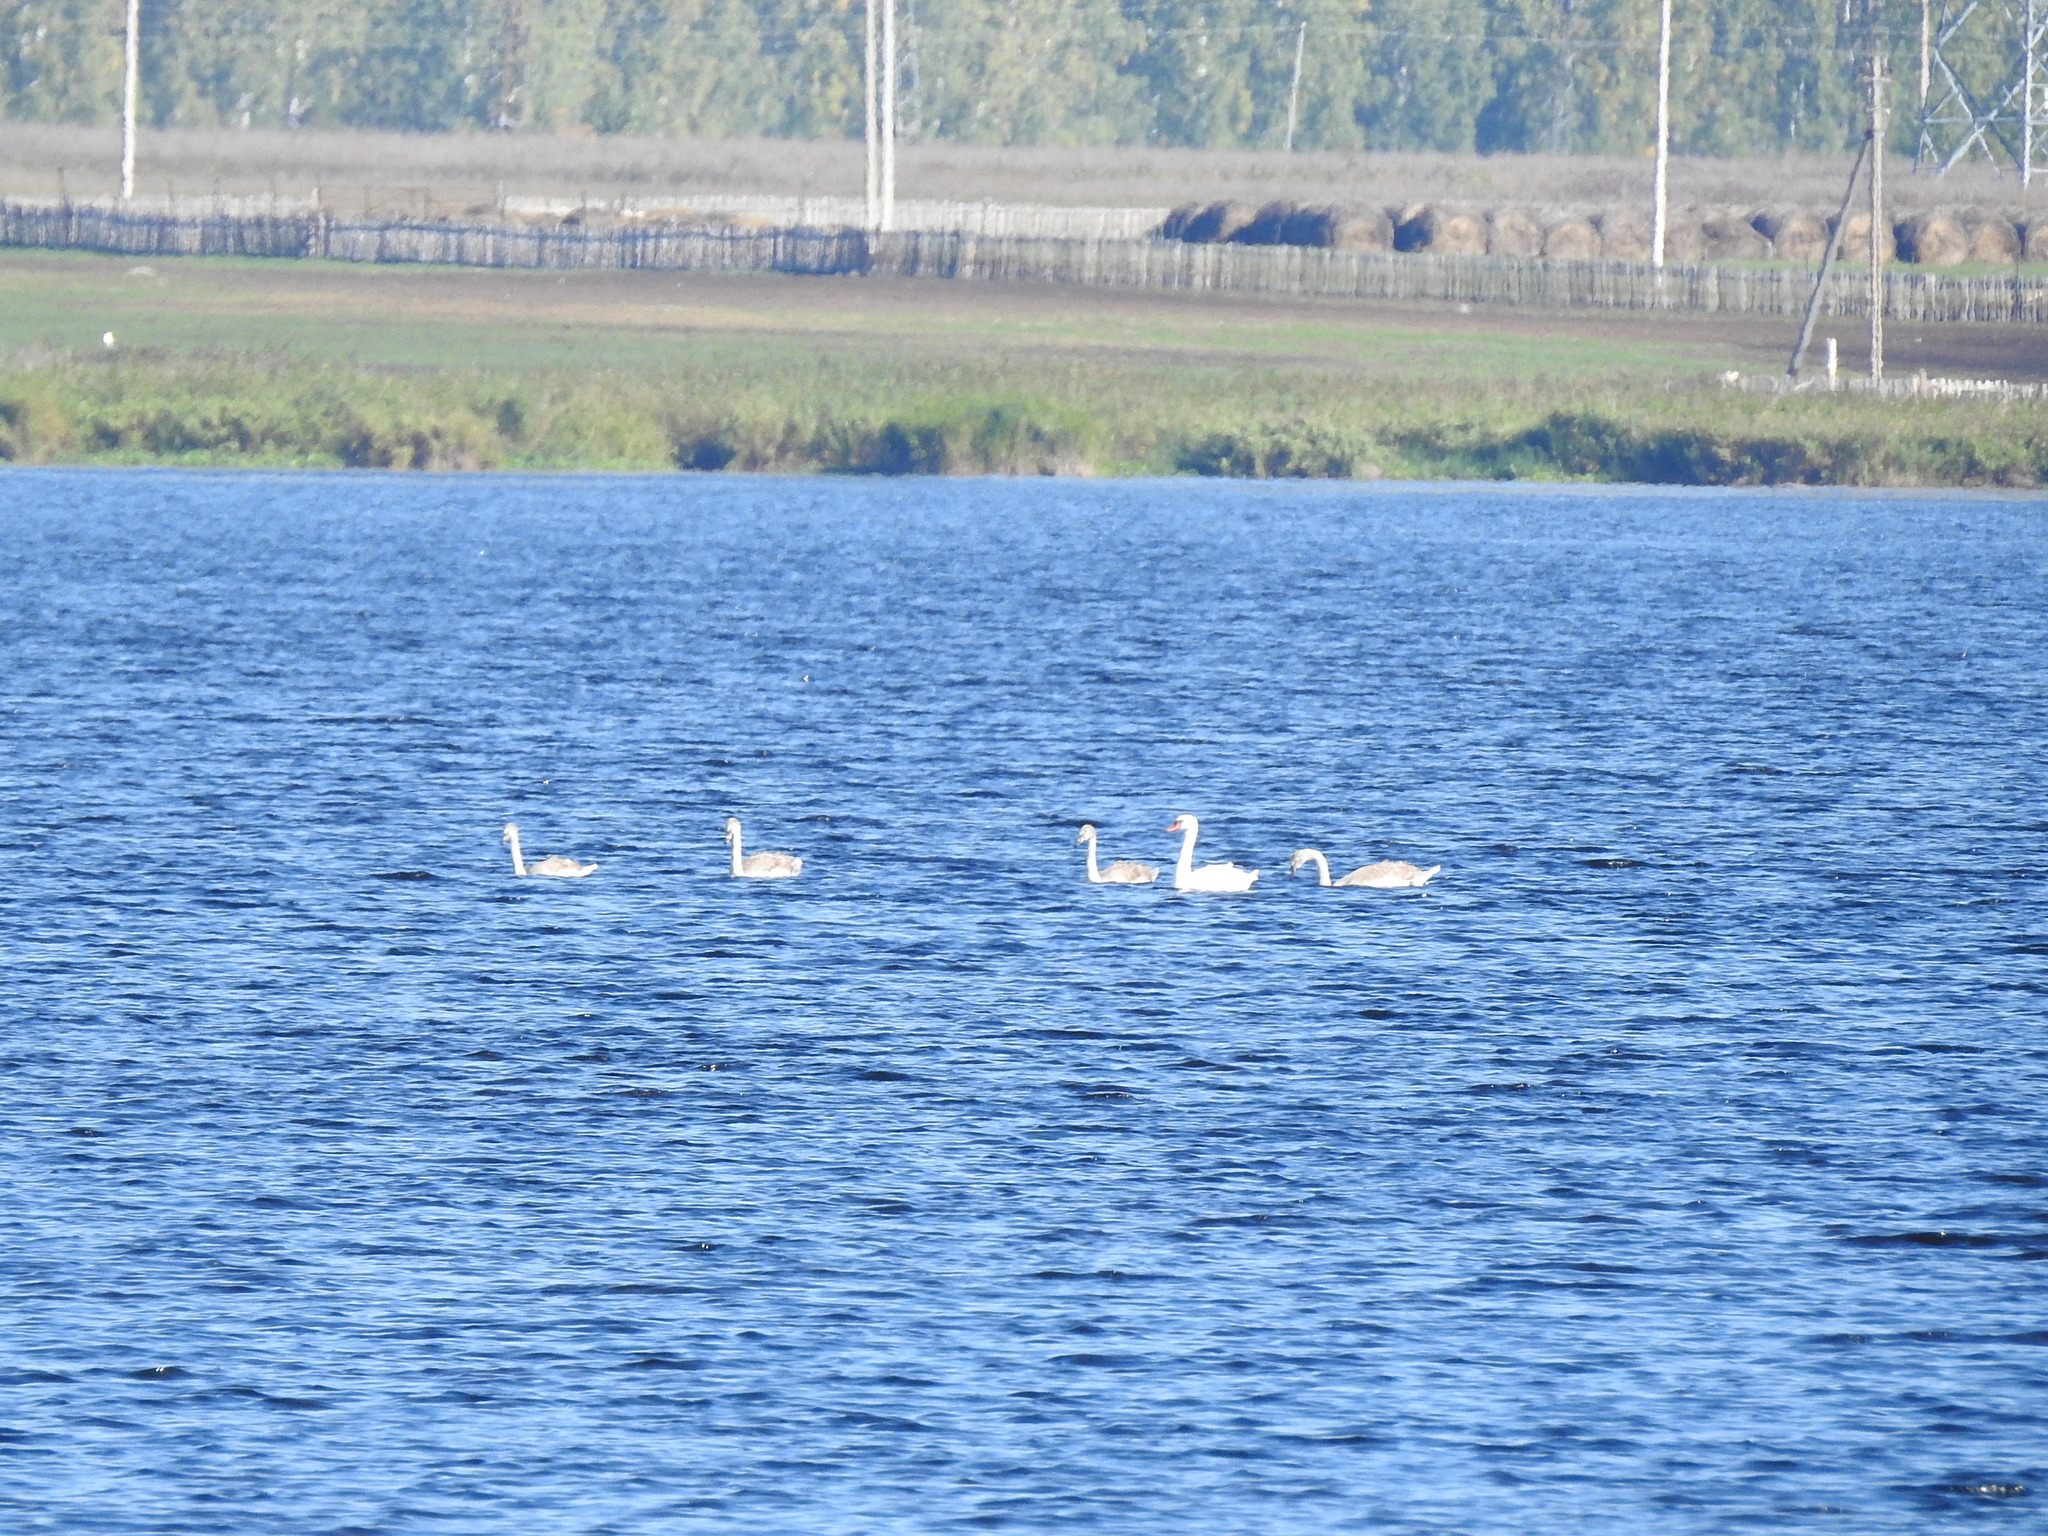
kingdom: Animalia
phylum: Chordata
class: Aves
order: Anseriformes
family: Anatidae
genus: Cygnus
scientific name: Cygnus olor
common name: Mute swan
